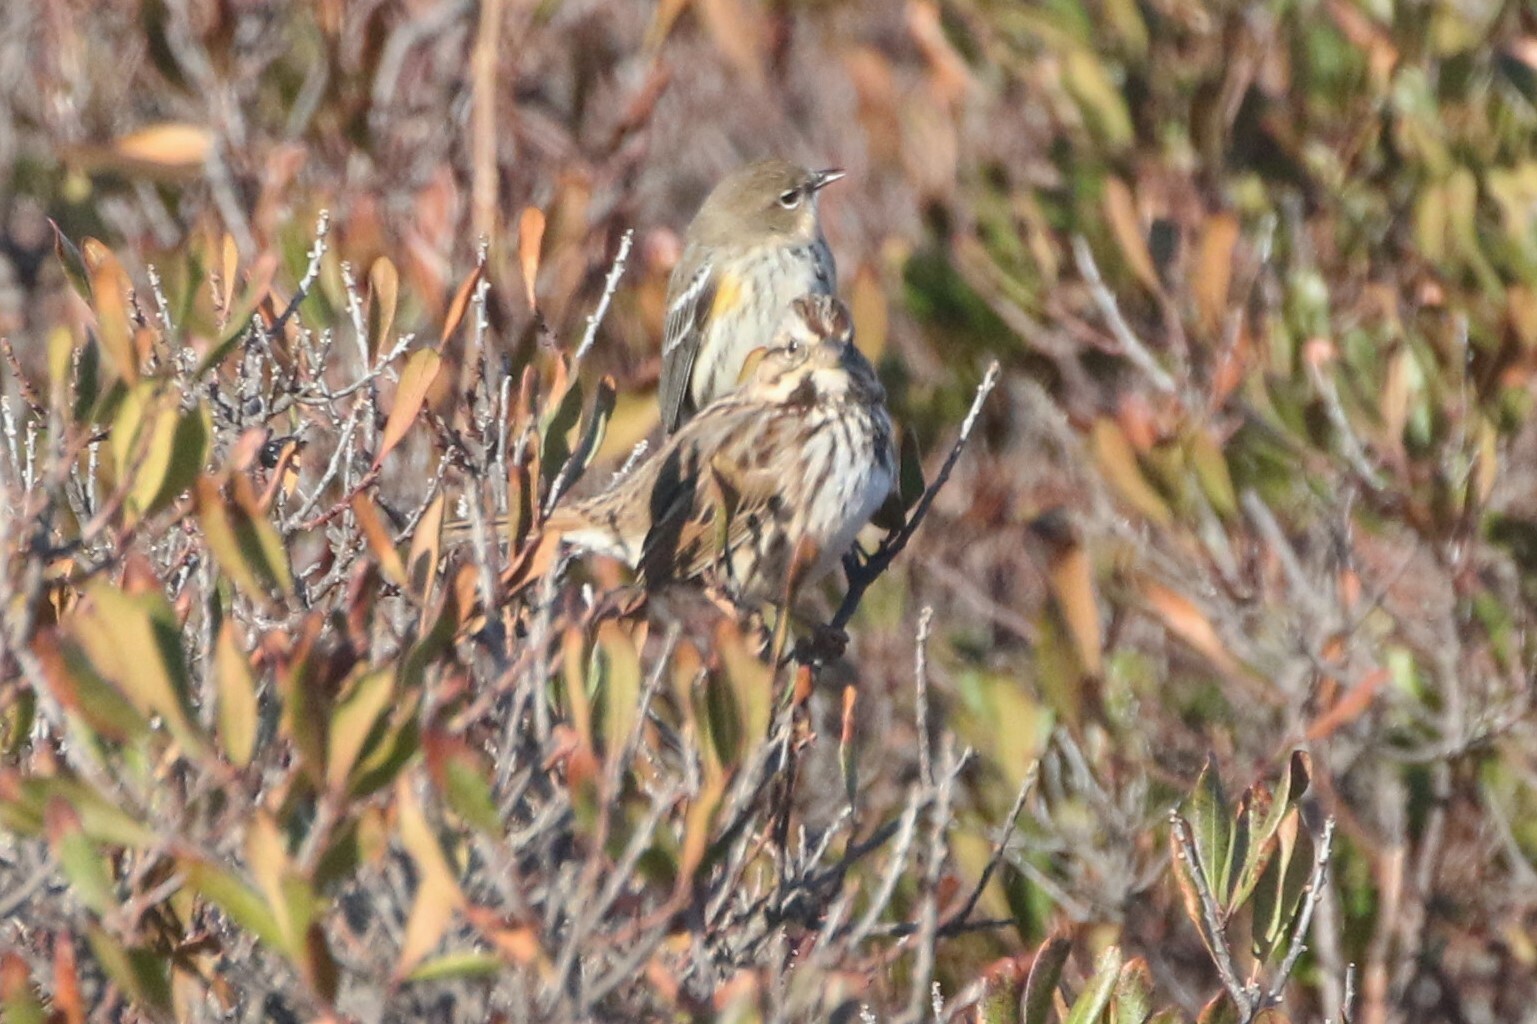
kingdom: Animalia
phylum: Chordata
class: Aves
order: Passeriformes
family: Passerellidae
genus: Melospiza
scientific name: Melospiza melodia
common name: Song sparrow
